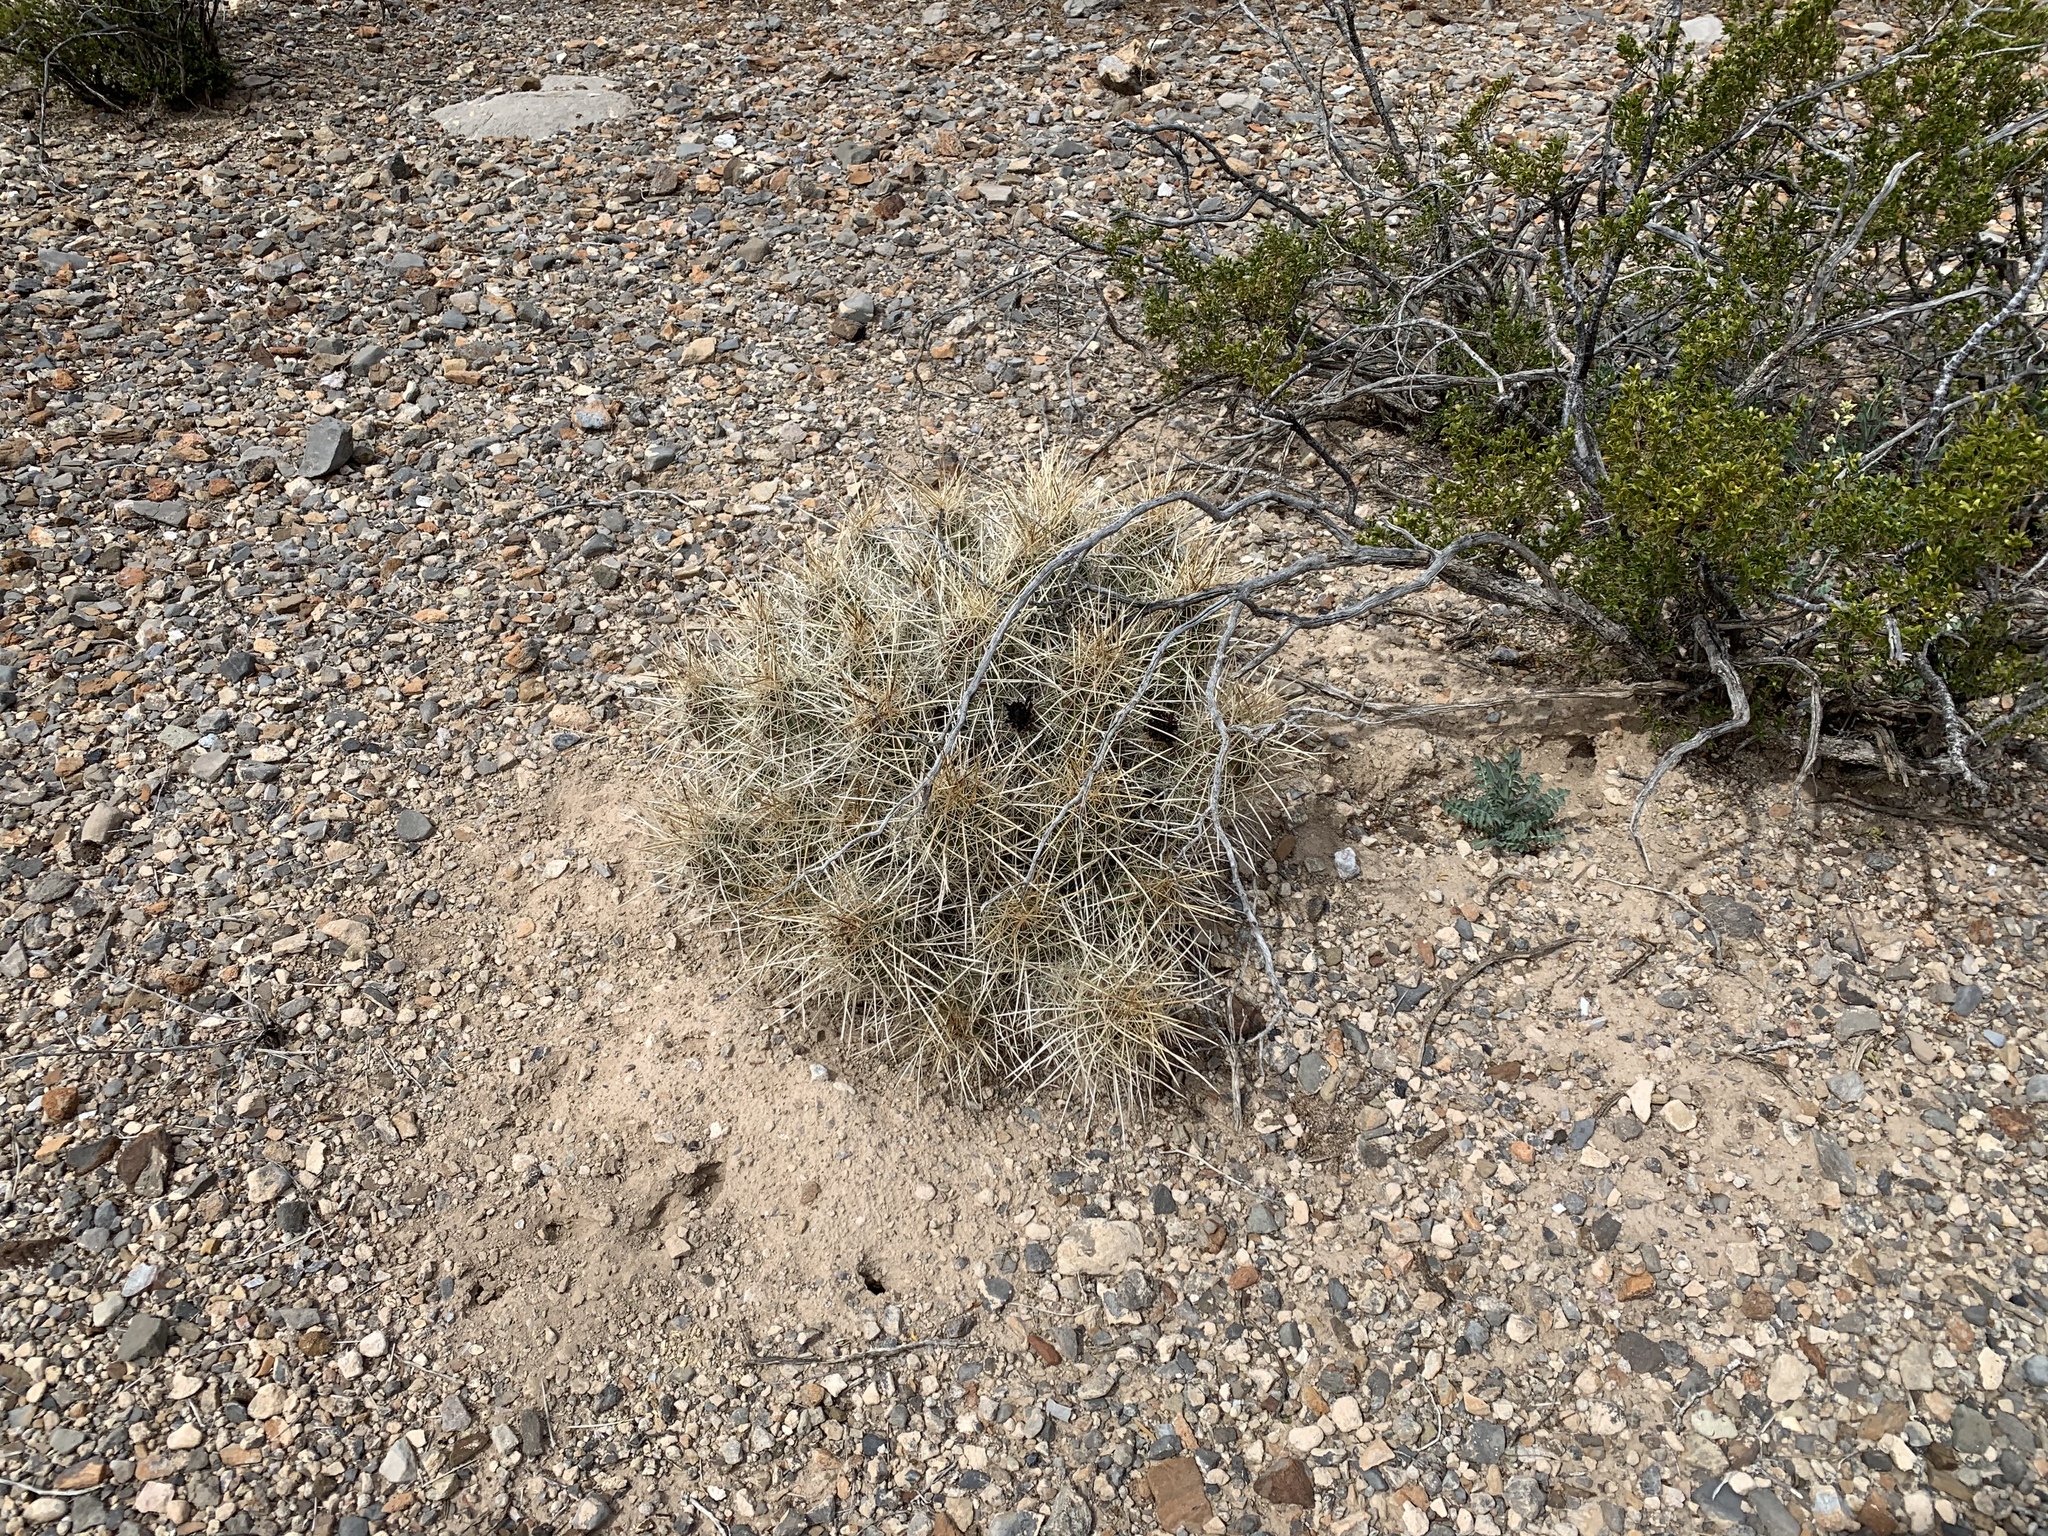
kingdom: Plantae
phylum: Tracheophyta
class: Magnoliopsida
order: Caryophyllales
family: Cactaceae
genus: Echinocereus
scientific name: Echinocereus stramineus
